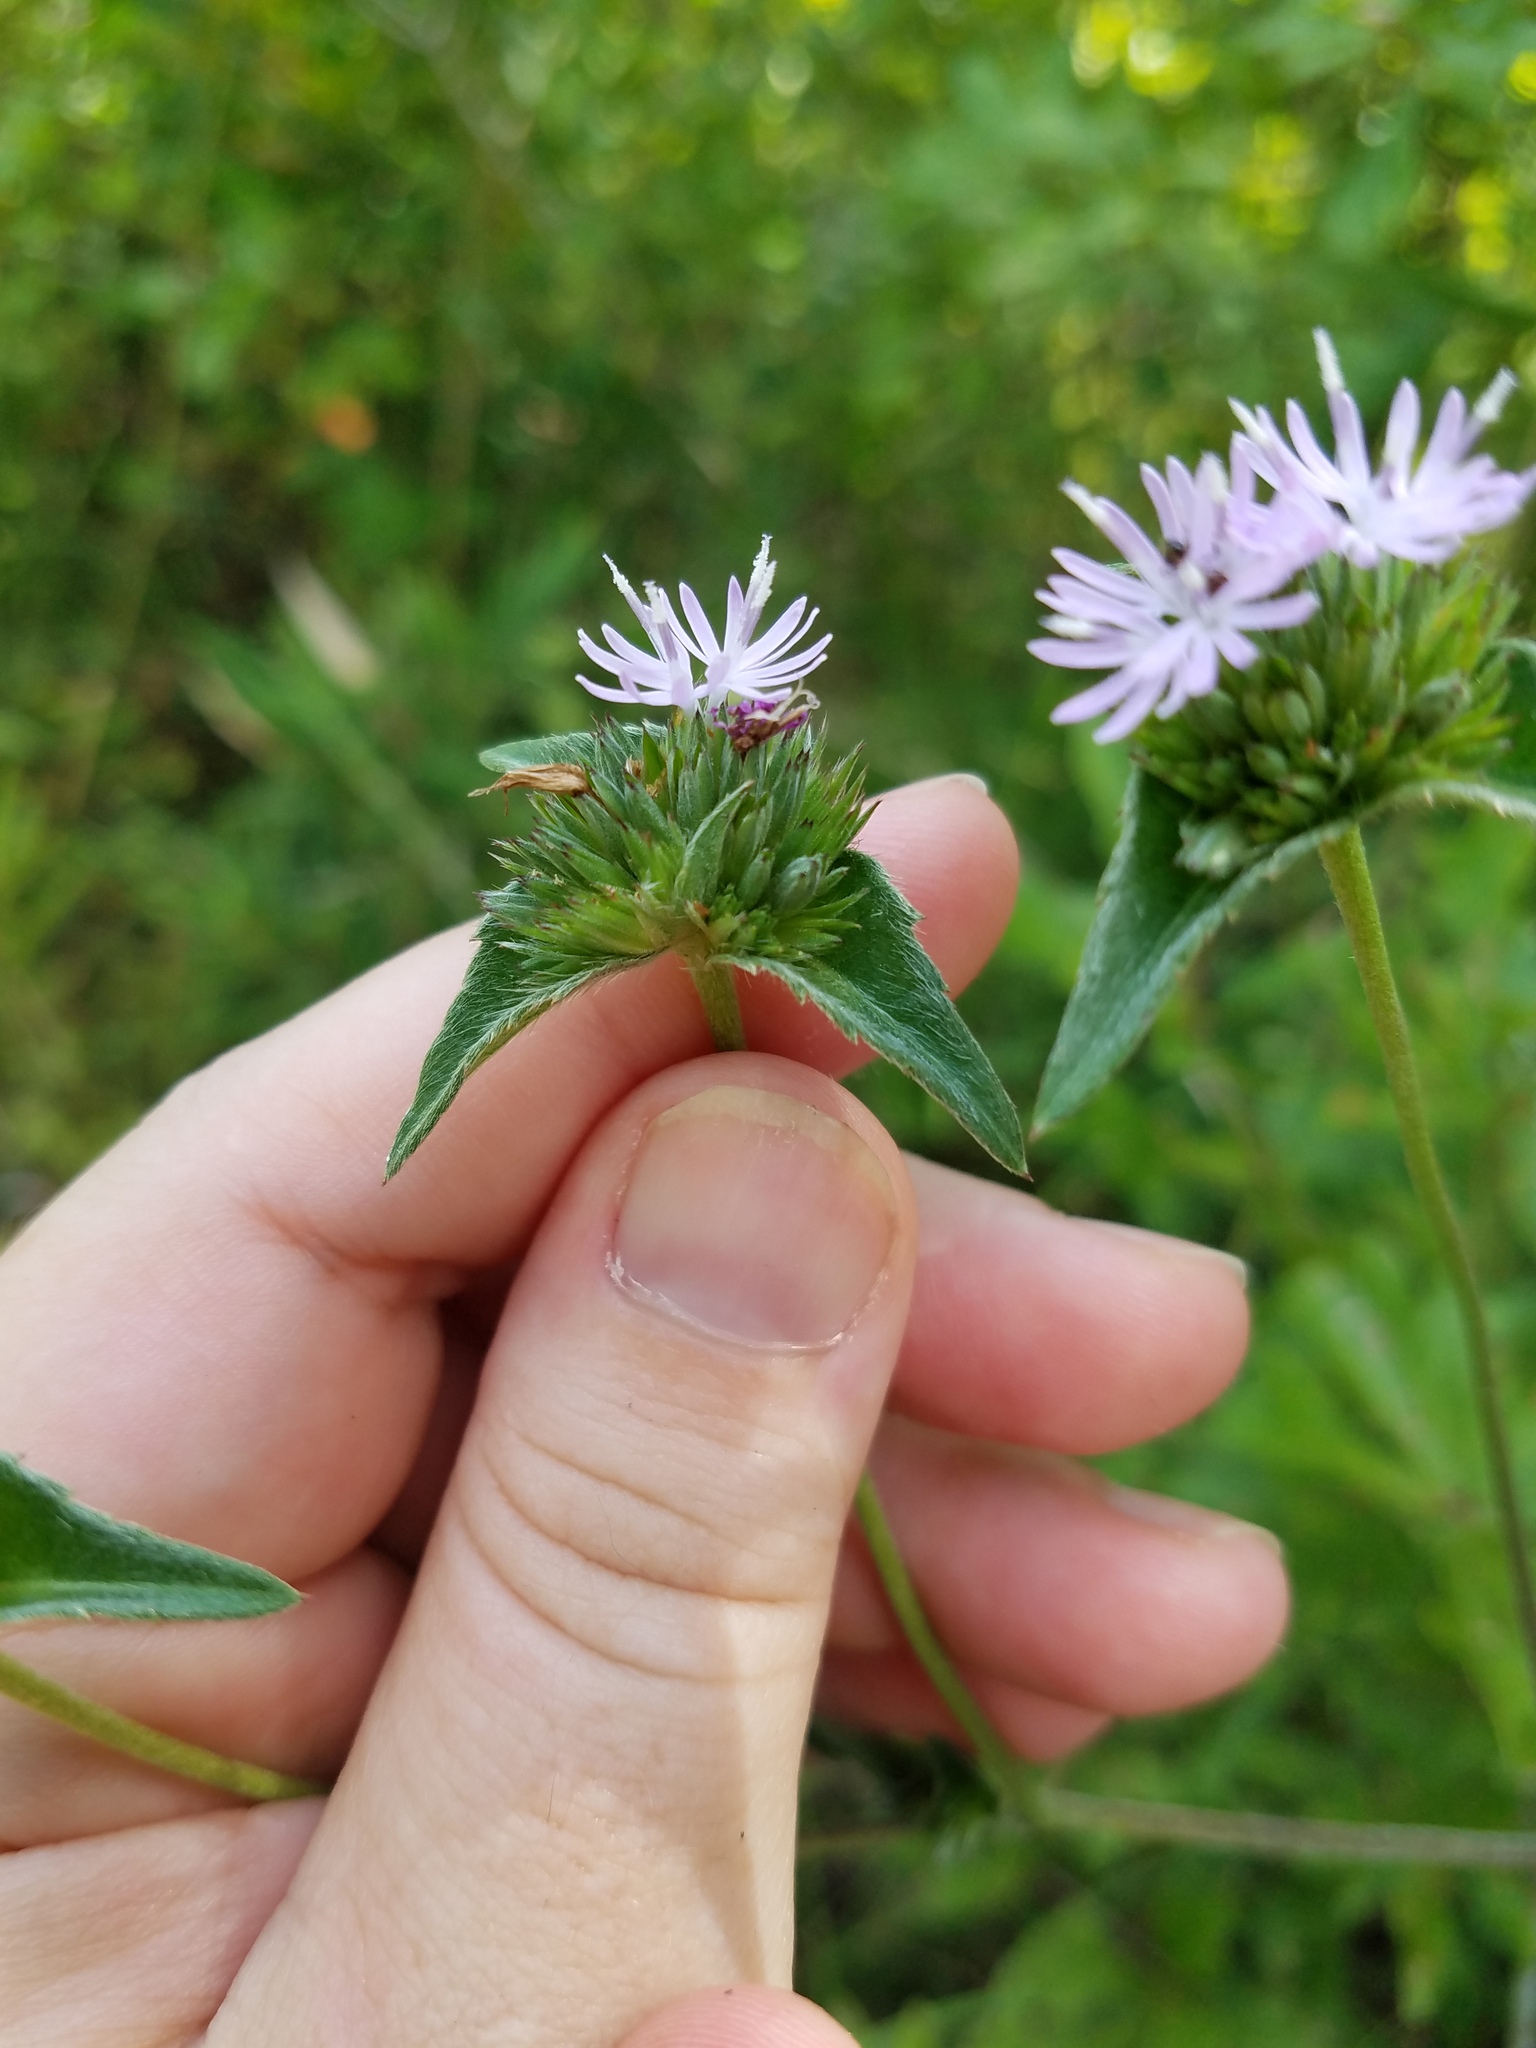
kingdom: Plantae
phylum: Tracheophyta
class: Magnoliopsida
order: Asterales
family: Asteraceae
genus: Elephantopus
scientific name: Elephantopus elatus
